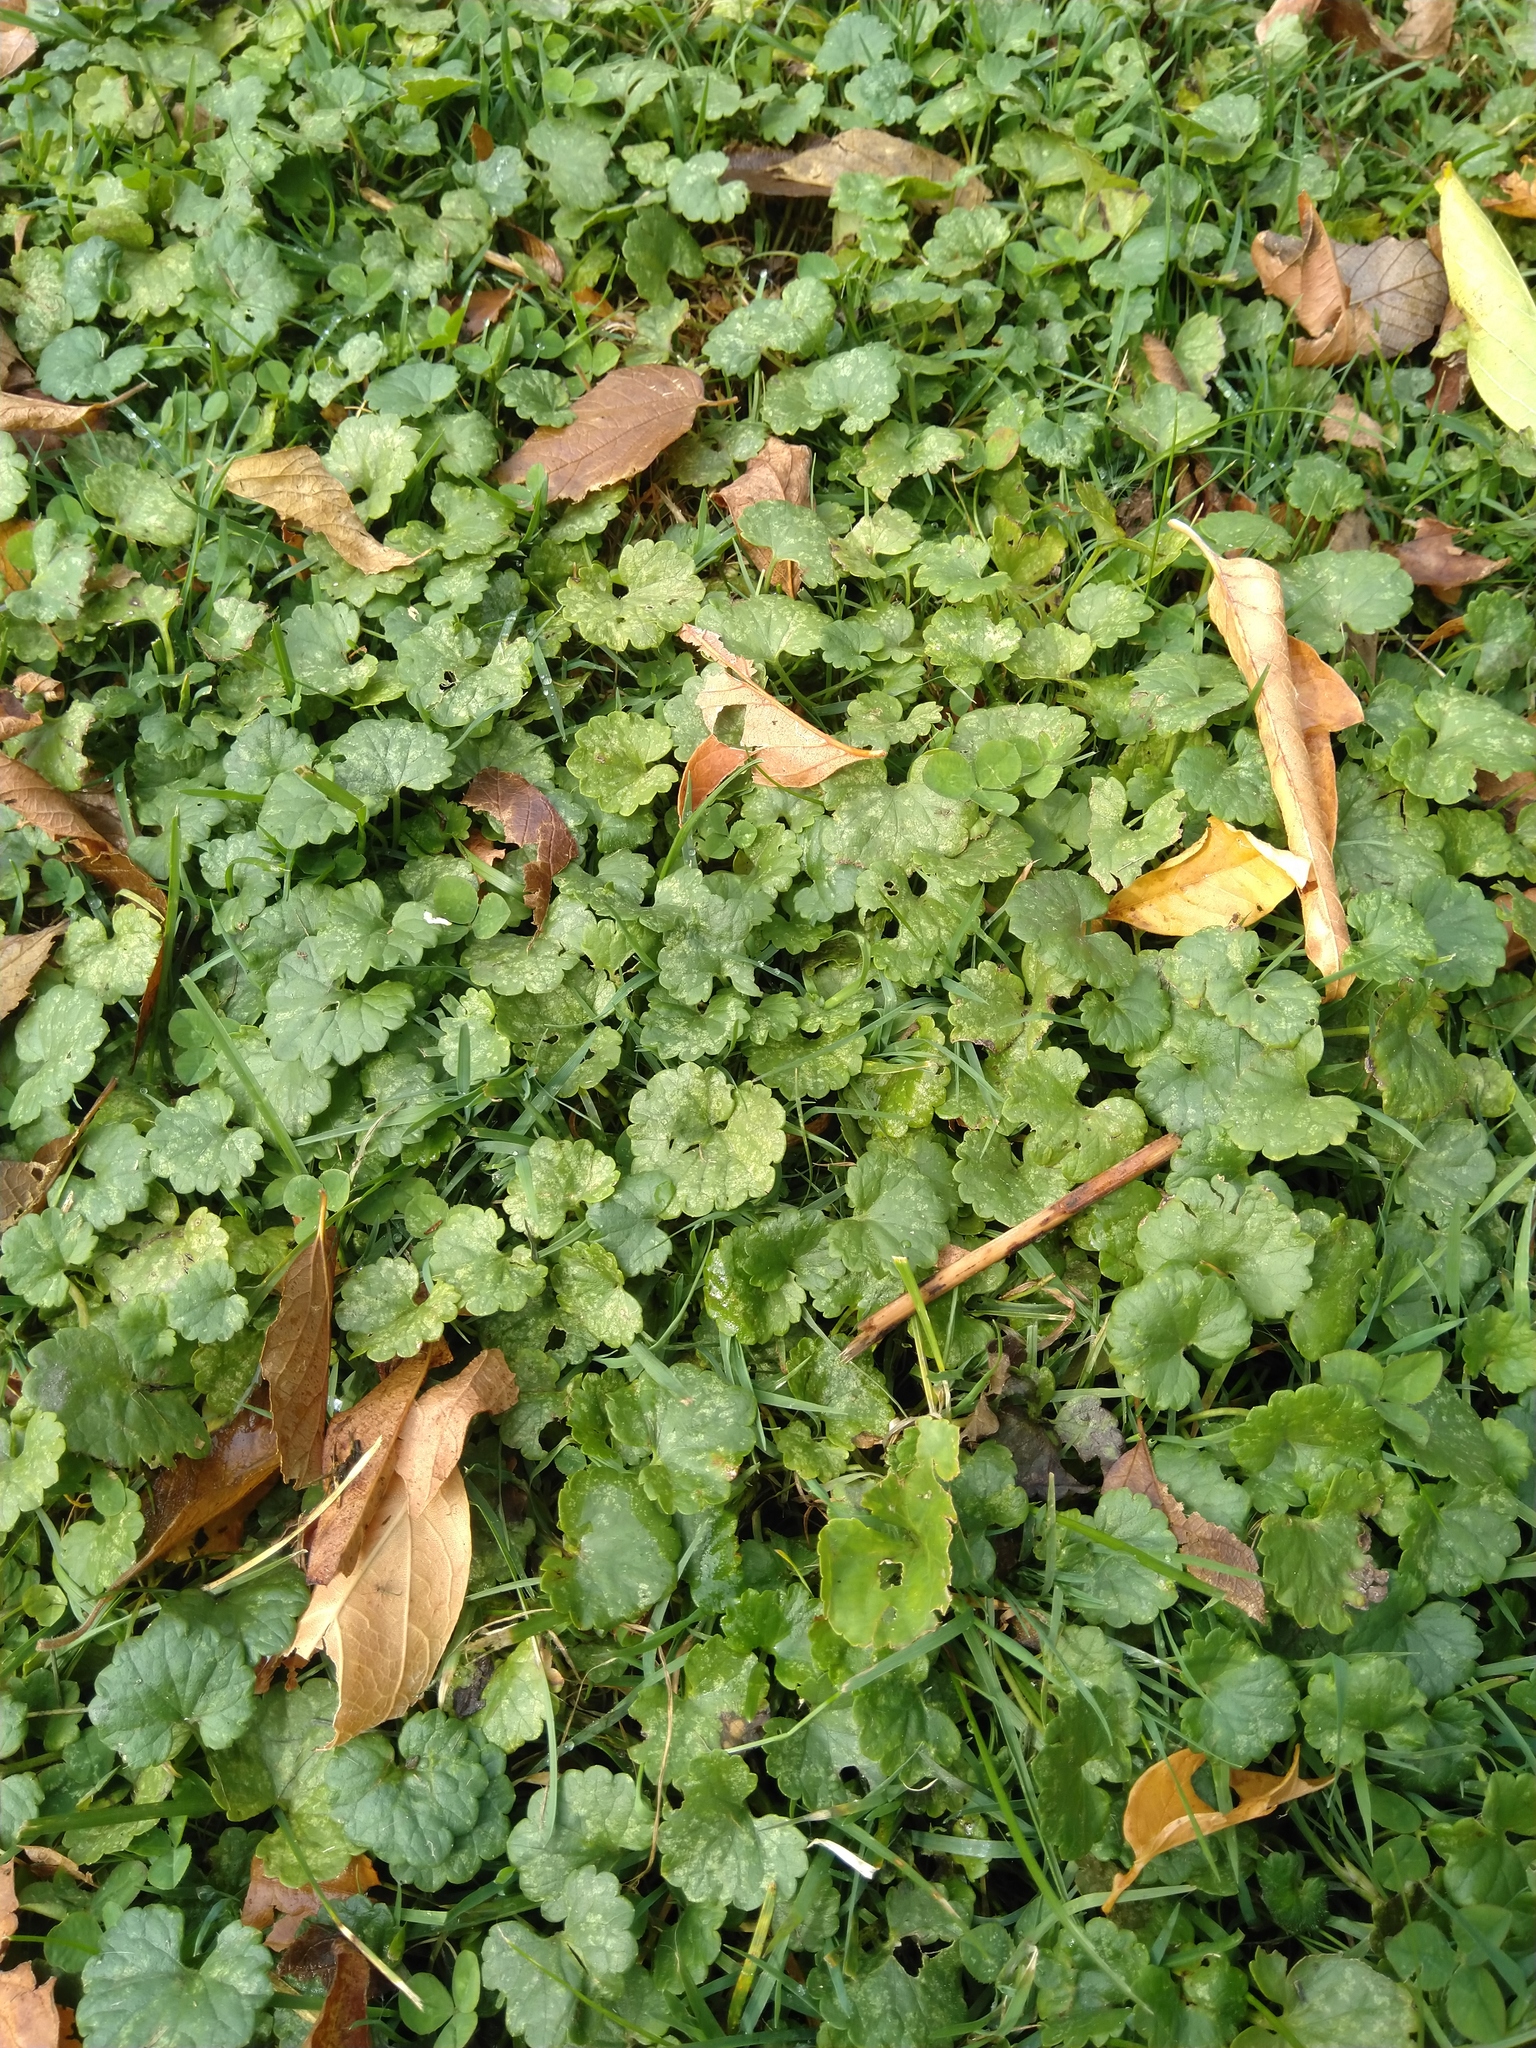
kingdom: Plantae
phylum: Tracheophyta
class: Magnoliopsida
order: Lamiales
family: Lamiaceae
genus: Glechoma
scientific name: Glechoma hederacea
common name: Ground ivy
